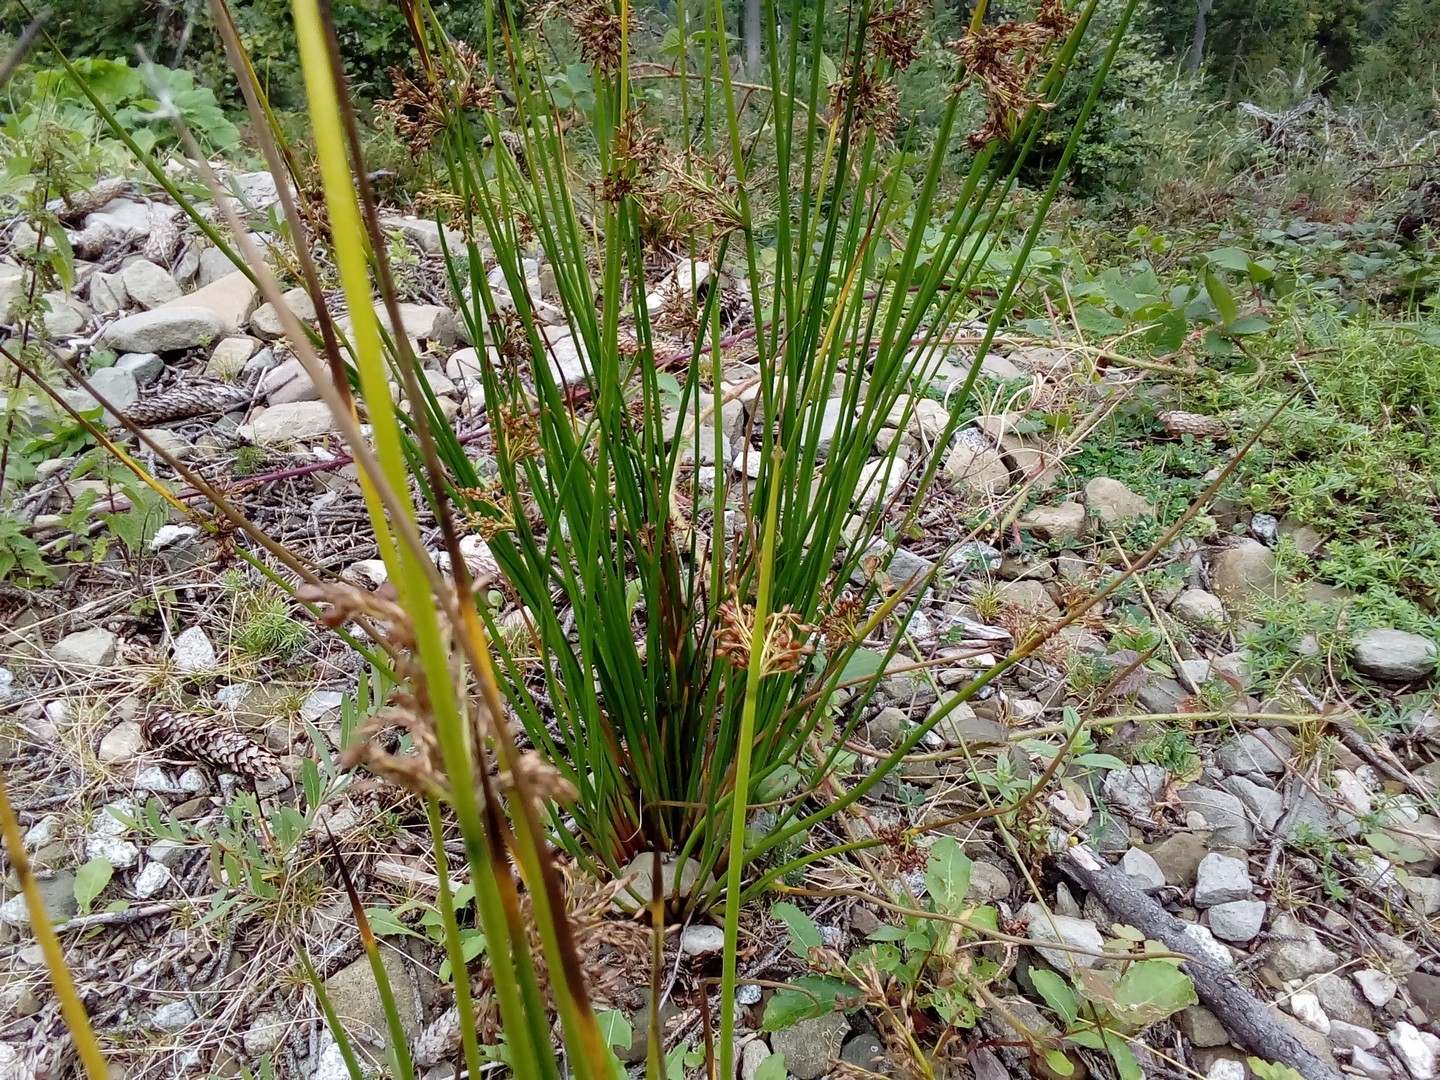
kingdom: Plantae
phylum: Tracheophyta
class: Liliopsida
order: Poales
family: Juncaceae
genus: Juncus
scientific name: Juncus effusus
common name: Soft rush
